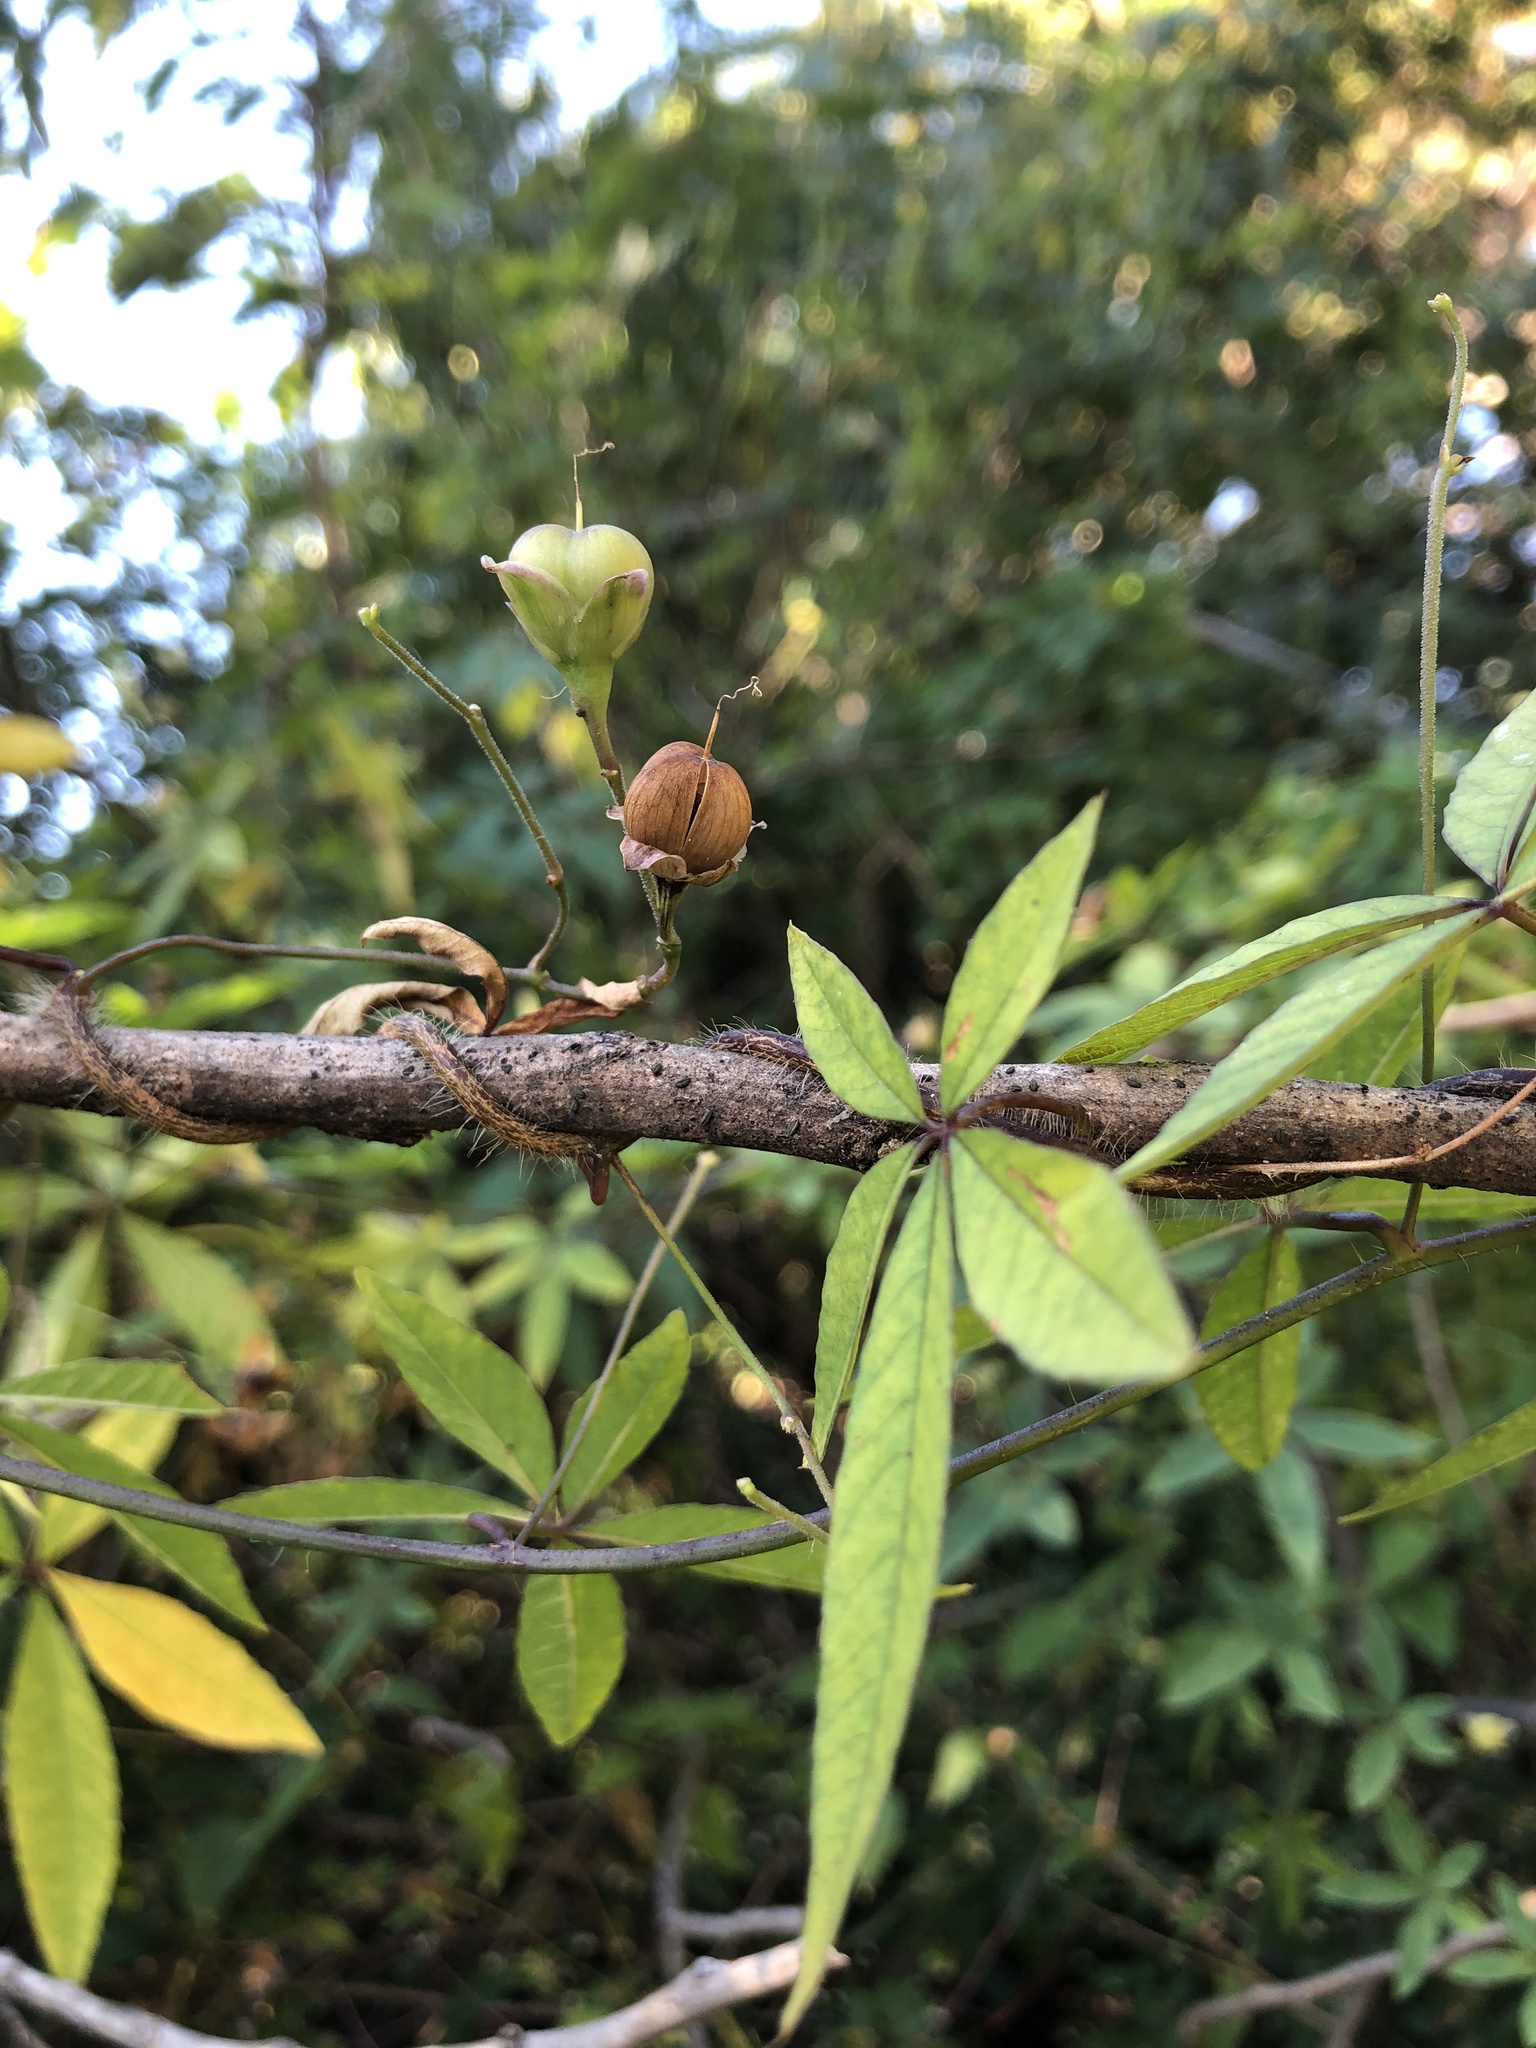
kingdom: Plantae
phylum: Tracheophyta
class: Magnoliopsida
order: Solanales
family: Convolvulaceae
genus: Distimake
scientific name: Distimake quinquefolius
